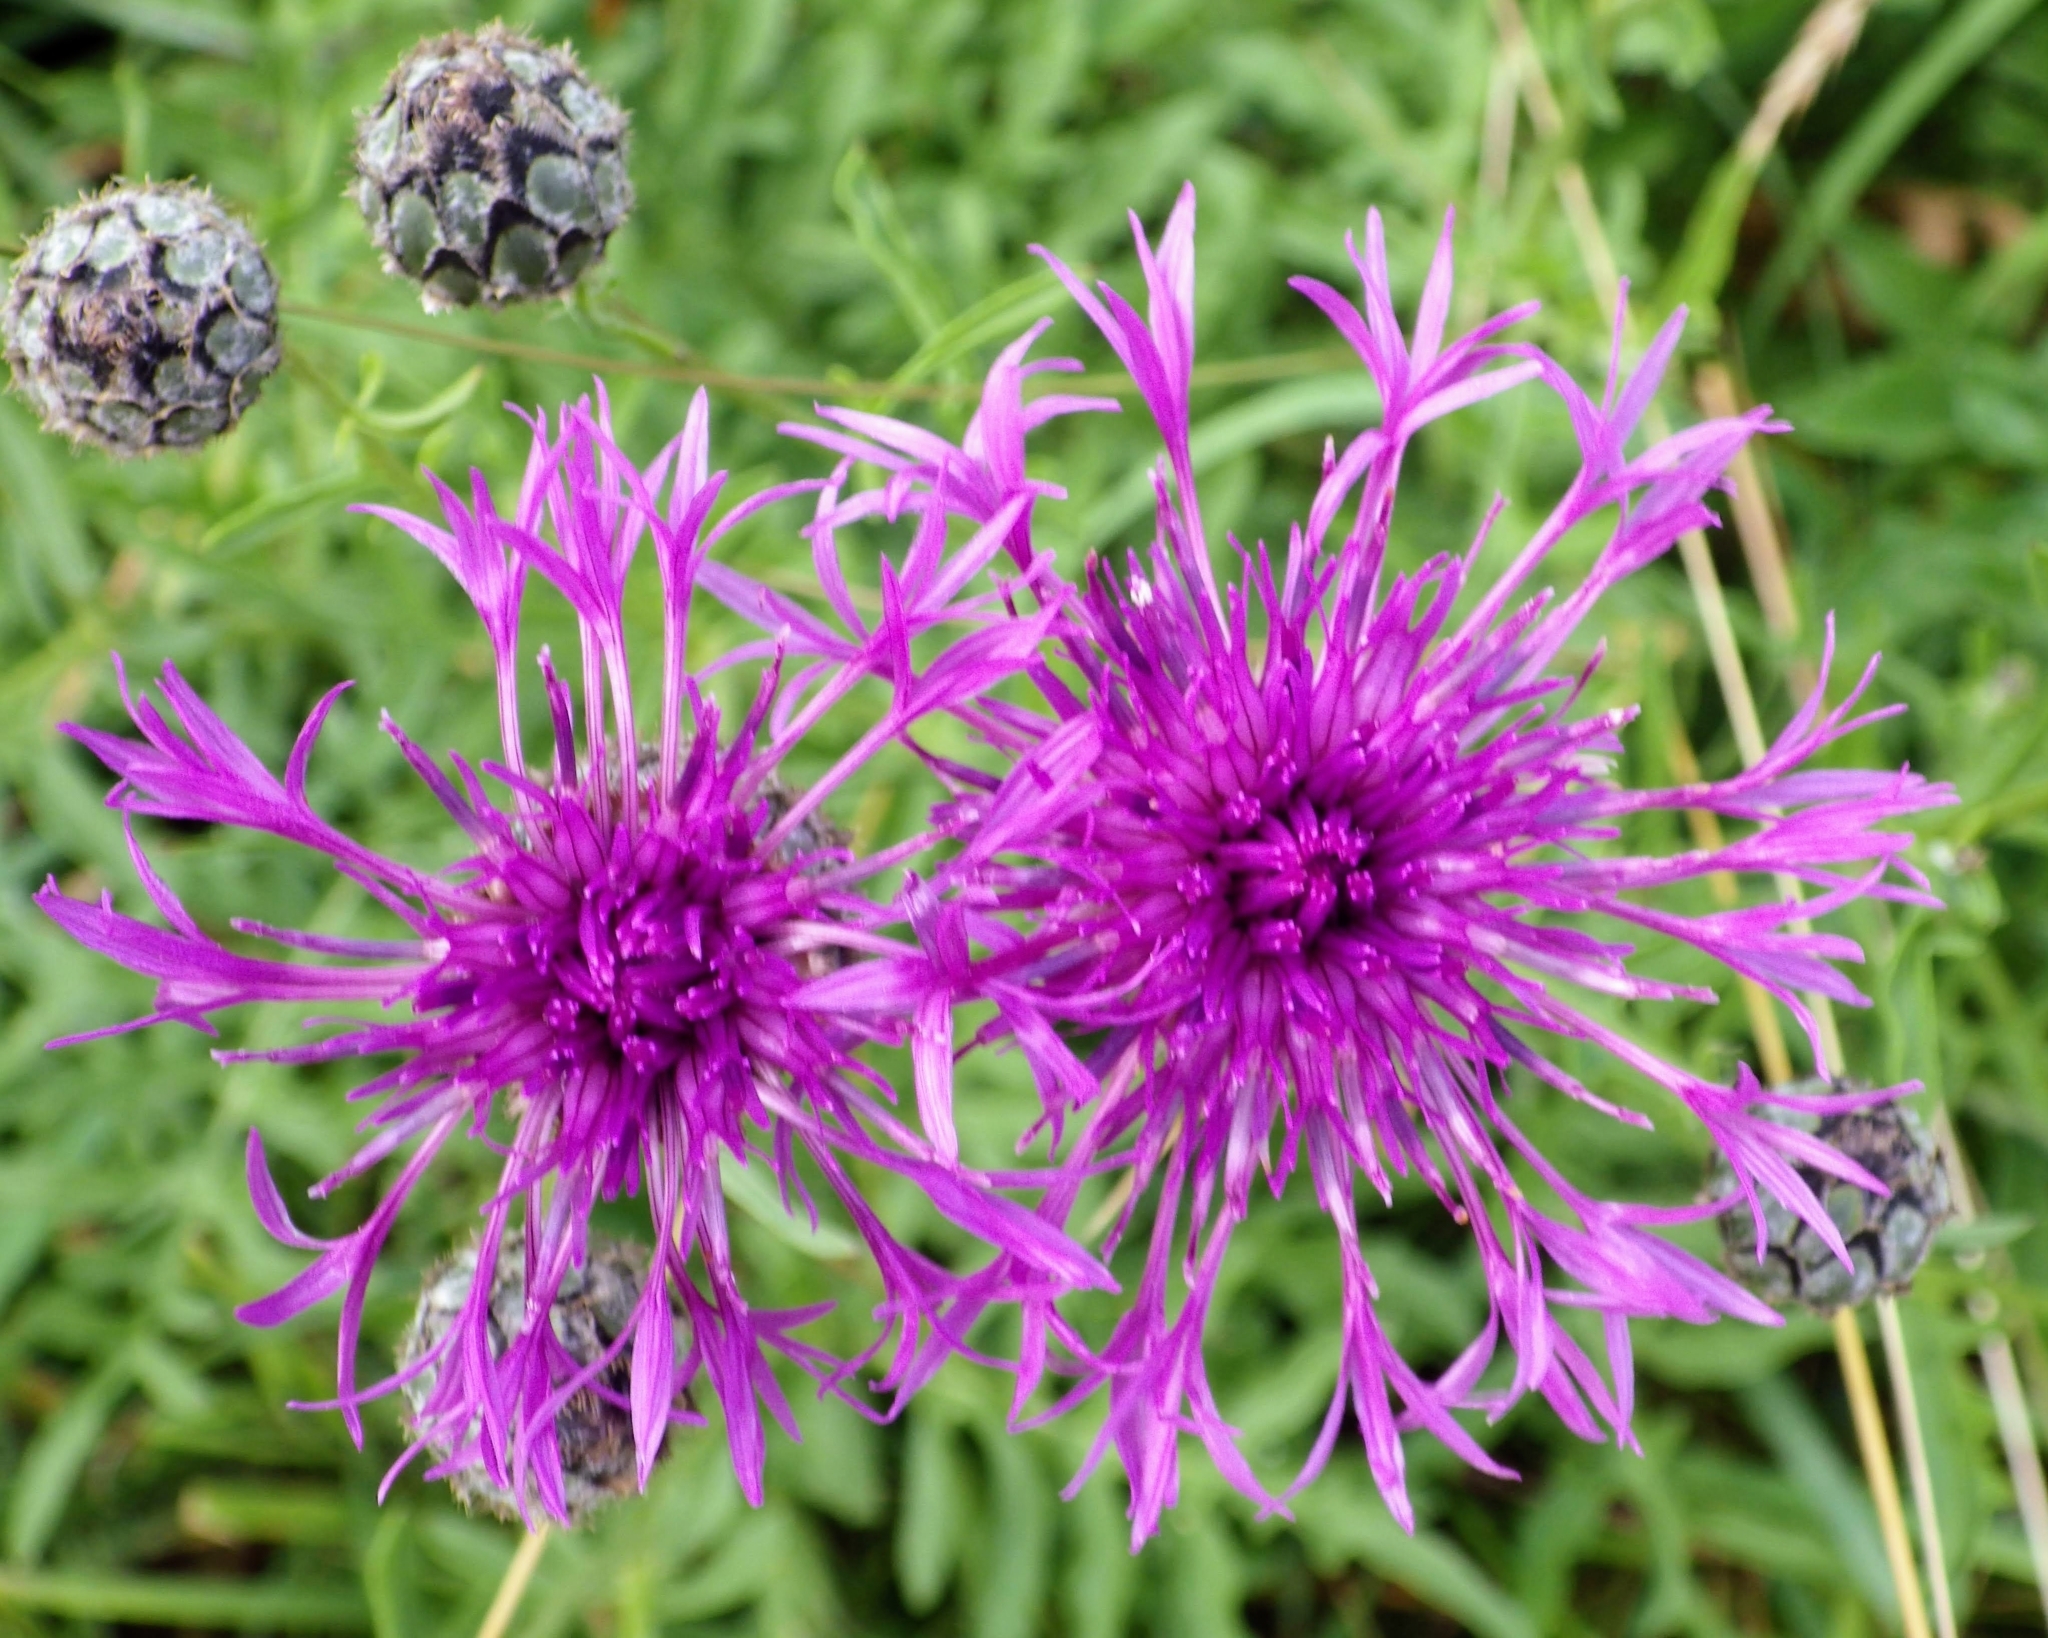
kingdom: Plantae
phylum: Tracheophyta
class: Magnoliopsida
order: Asterales
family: Asteraceae
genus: Centaurea
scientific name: Centaurea scabiosa
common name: Greater knapweed
